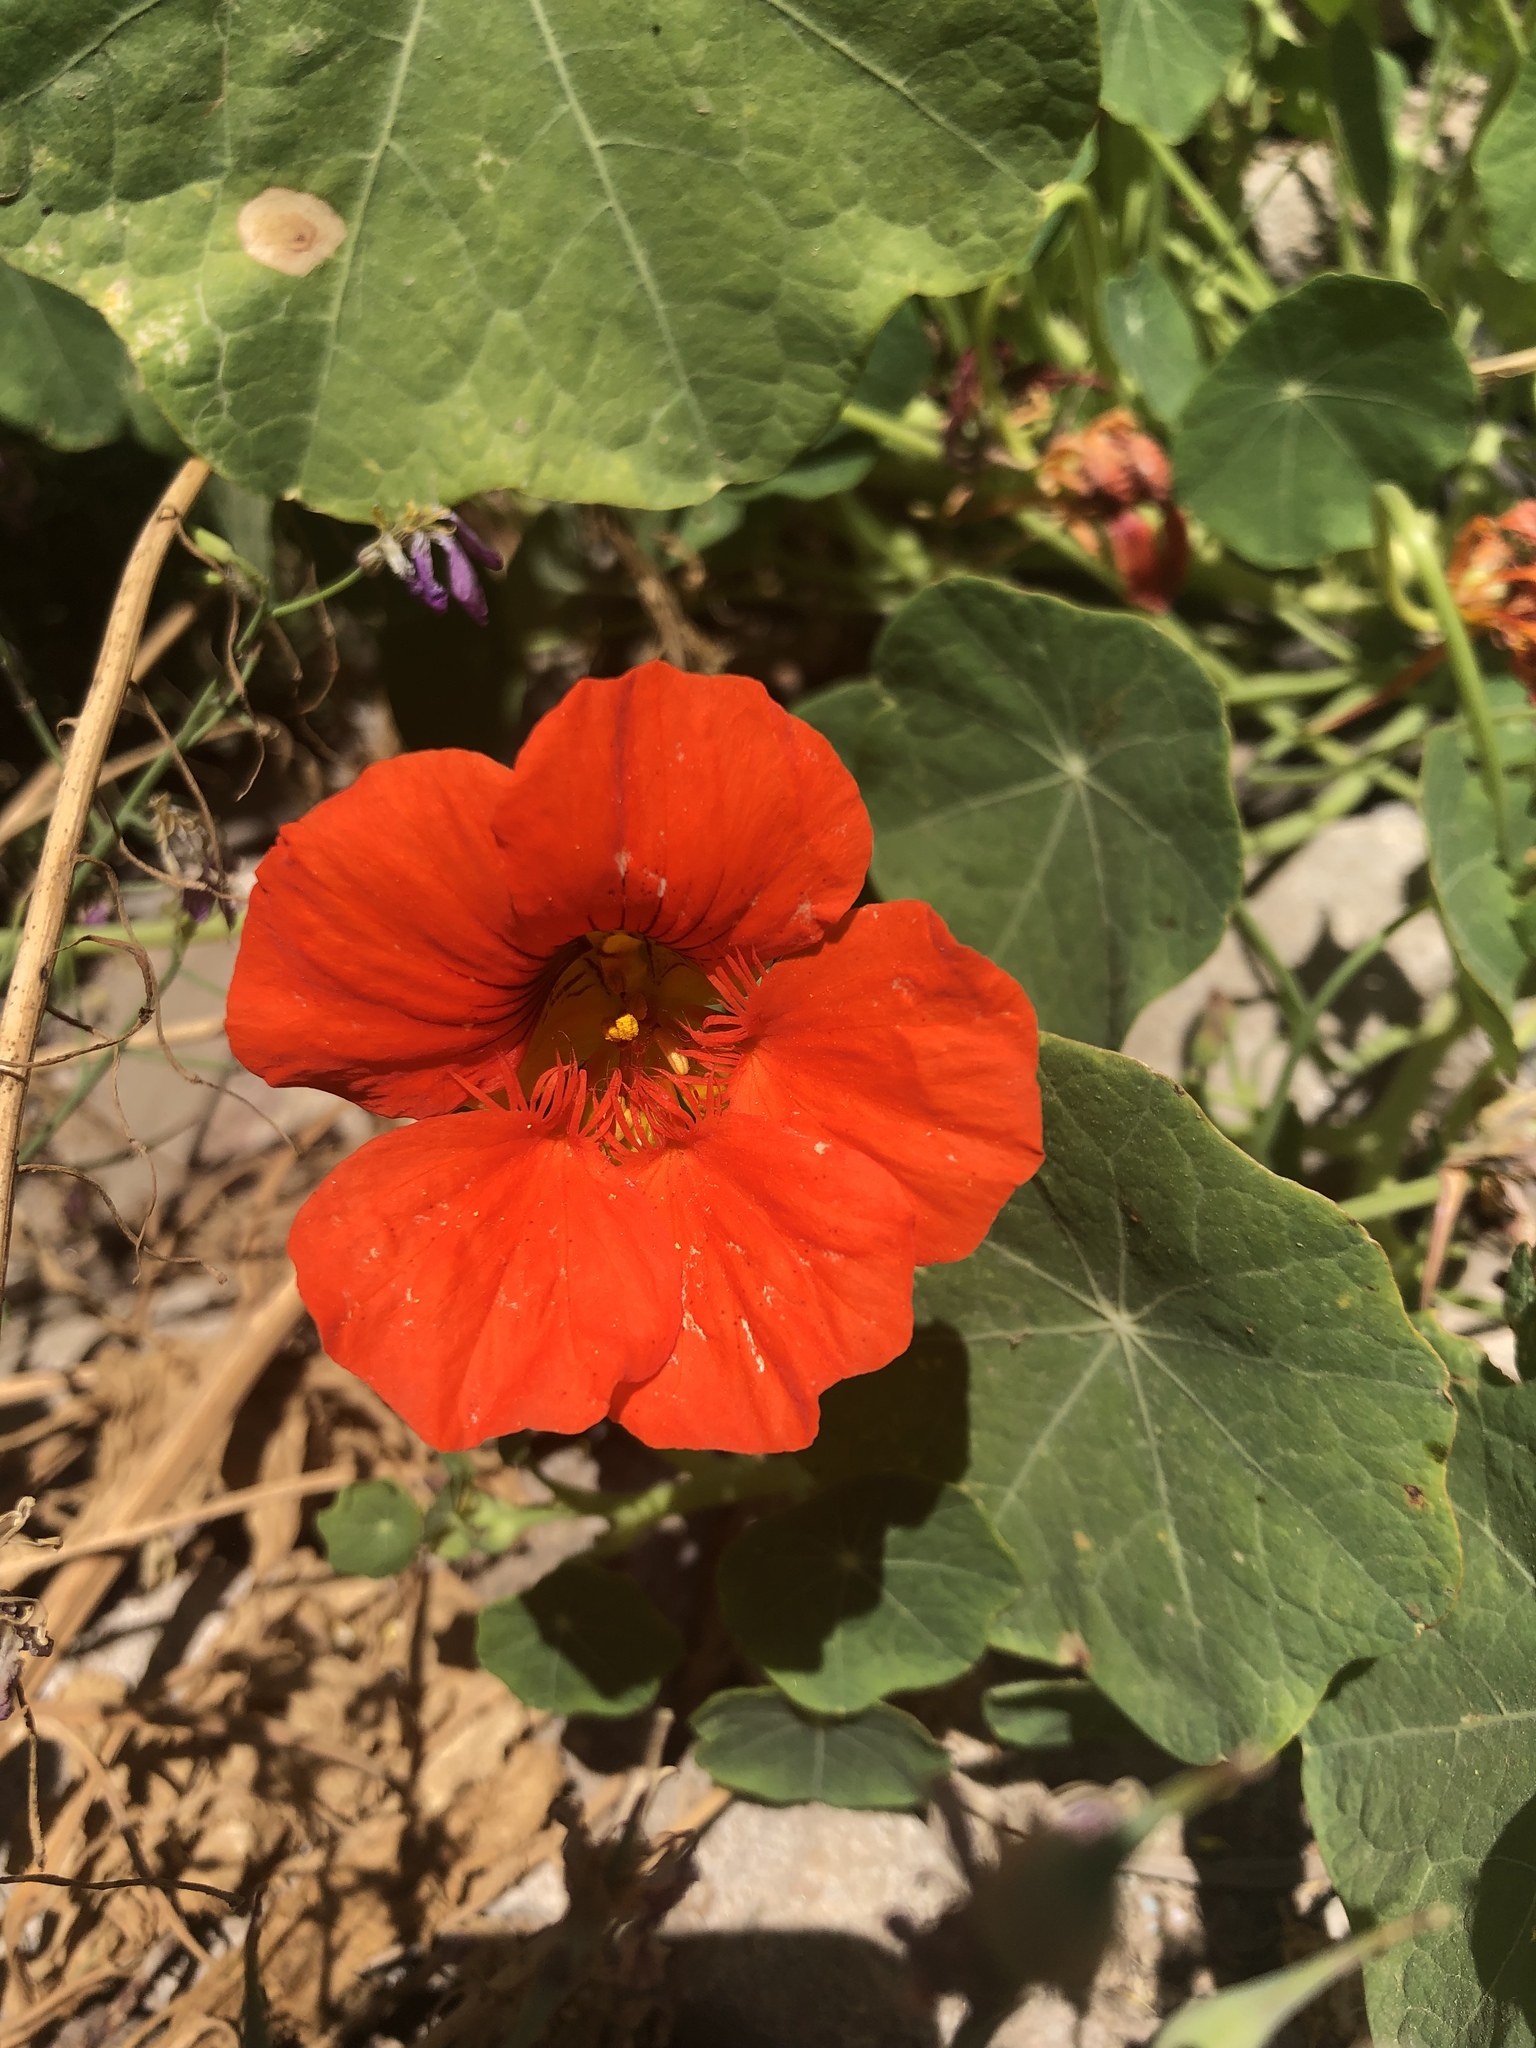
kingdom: Plantae
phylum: Tracheophyta
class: Magnoliopsida
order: Brassicales
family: Tropaeolaceae
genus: Tropaeolum
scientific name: Tropaeolum majus
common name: Nasturtium
